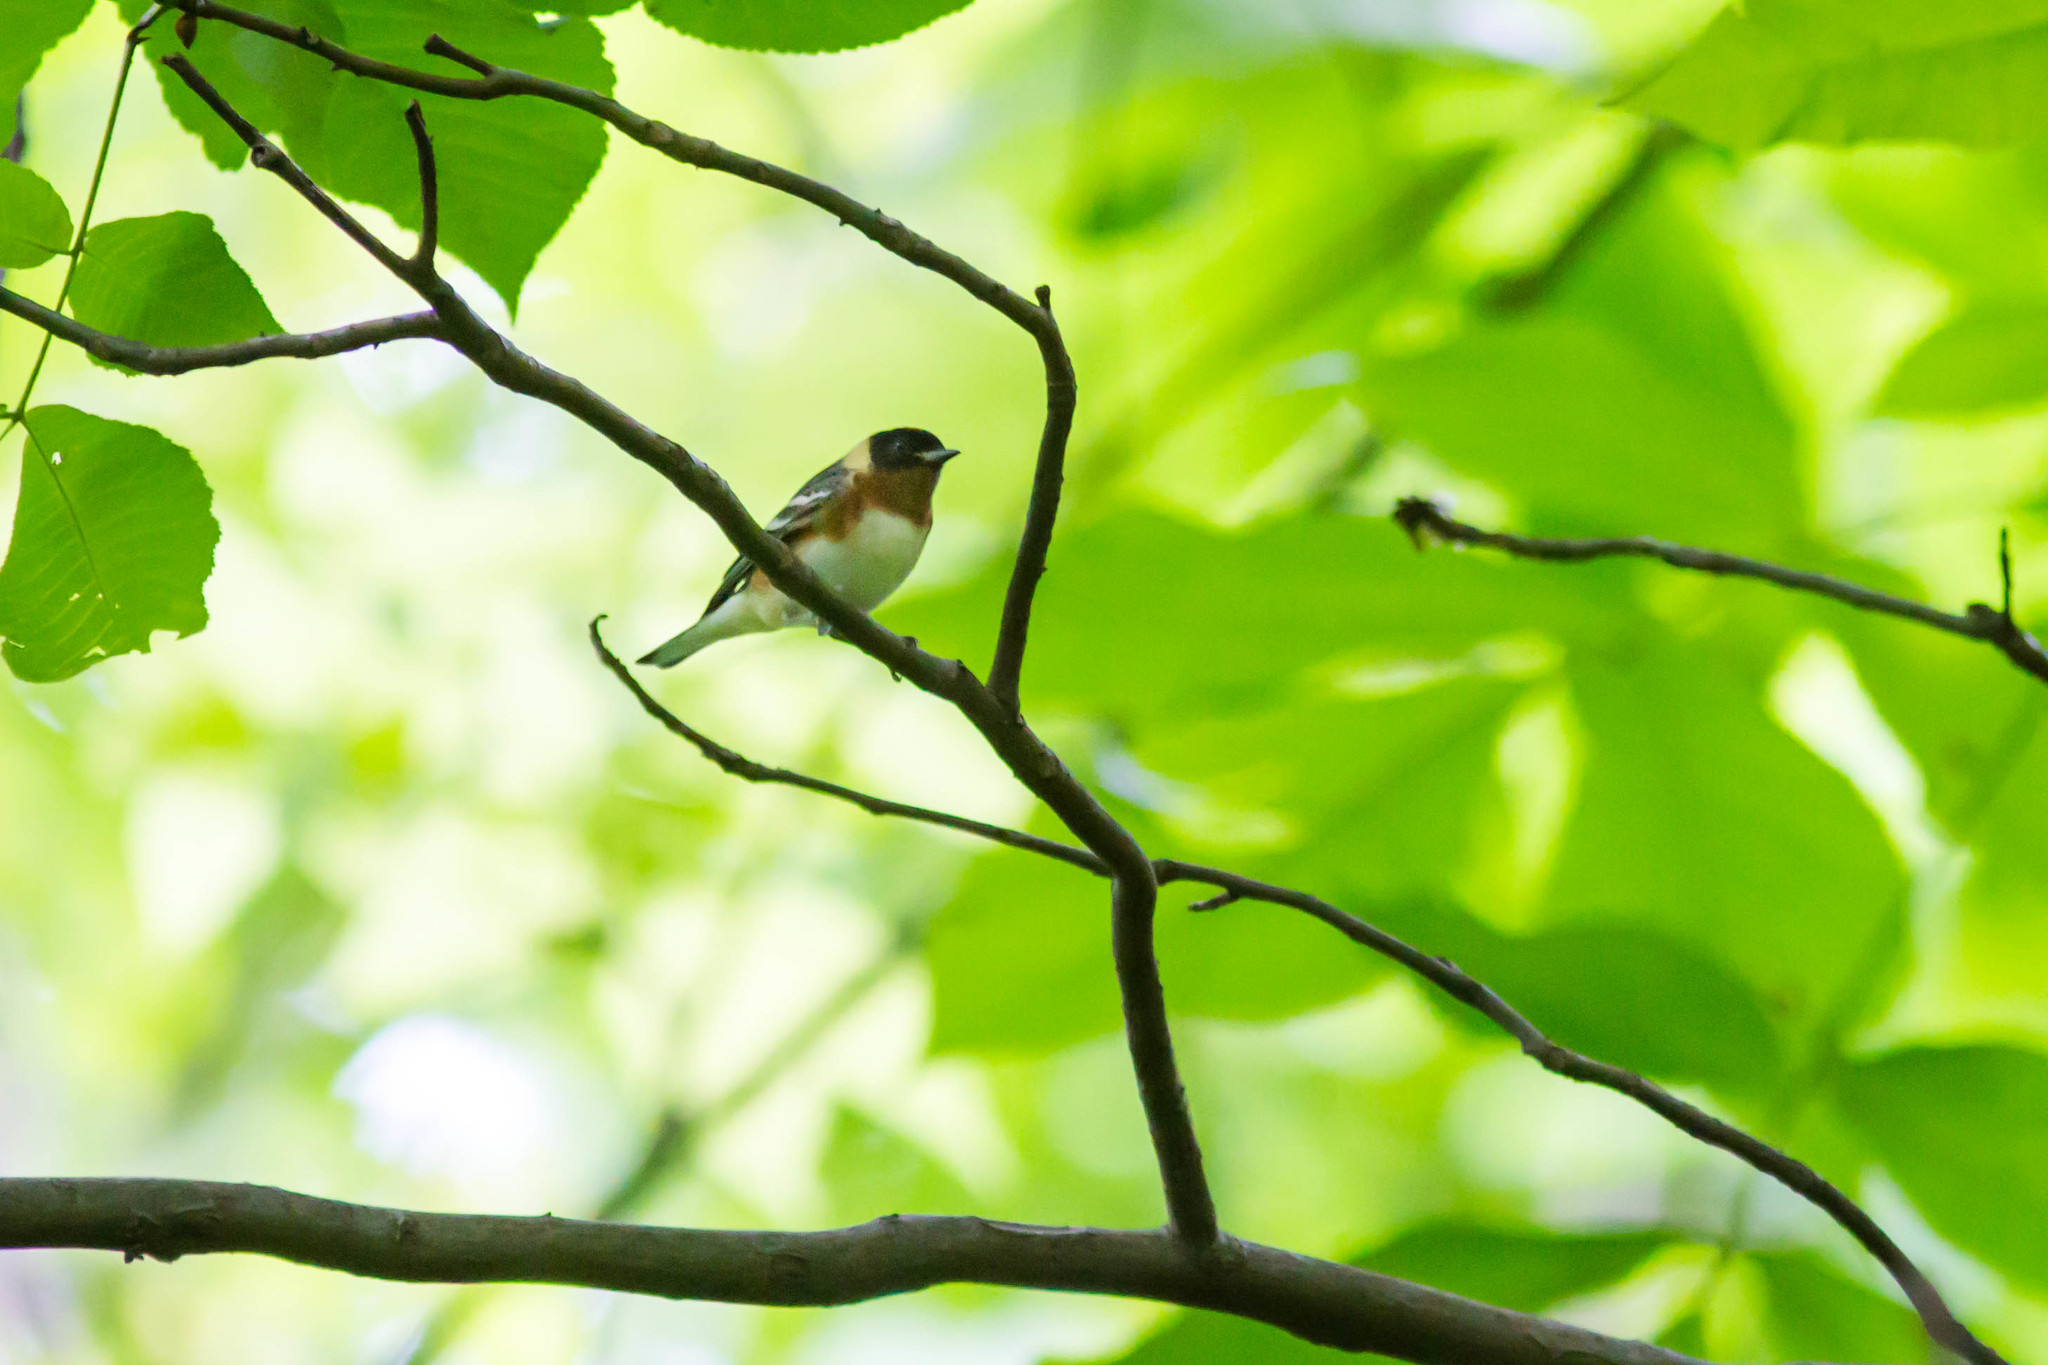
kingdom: Animalia
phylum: Chordata
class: Aves
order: Passeriformes
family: Parulidae
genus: Setophaga
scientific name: Setophaga castanea
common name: Bay-breasted warbler
